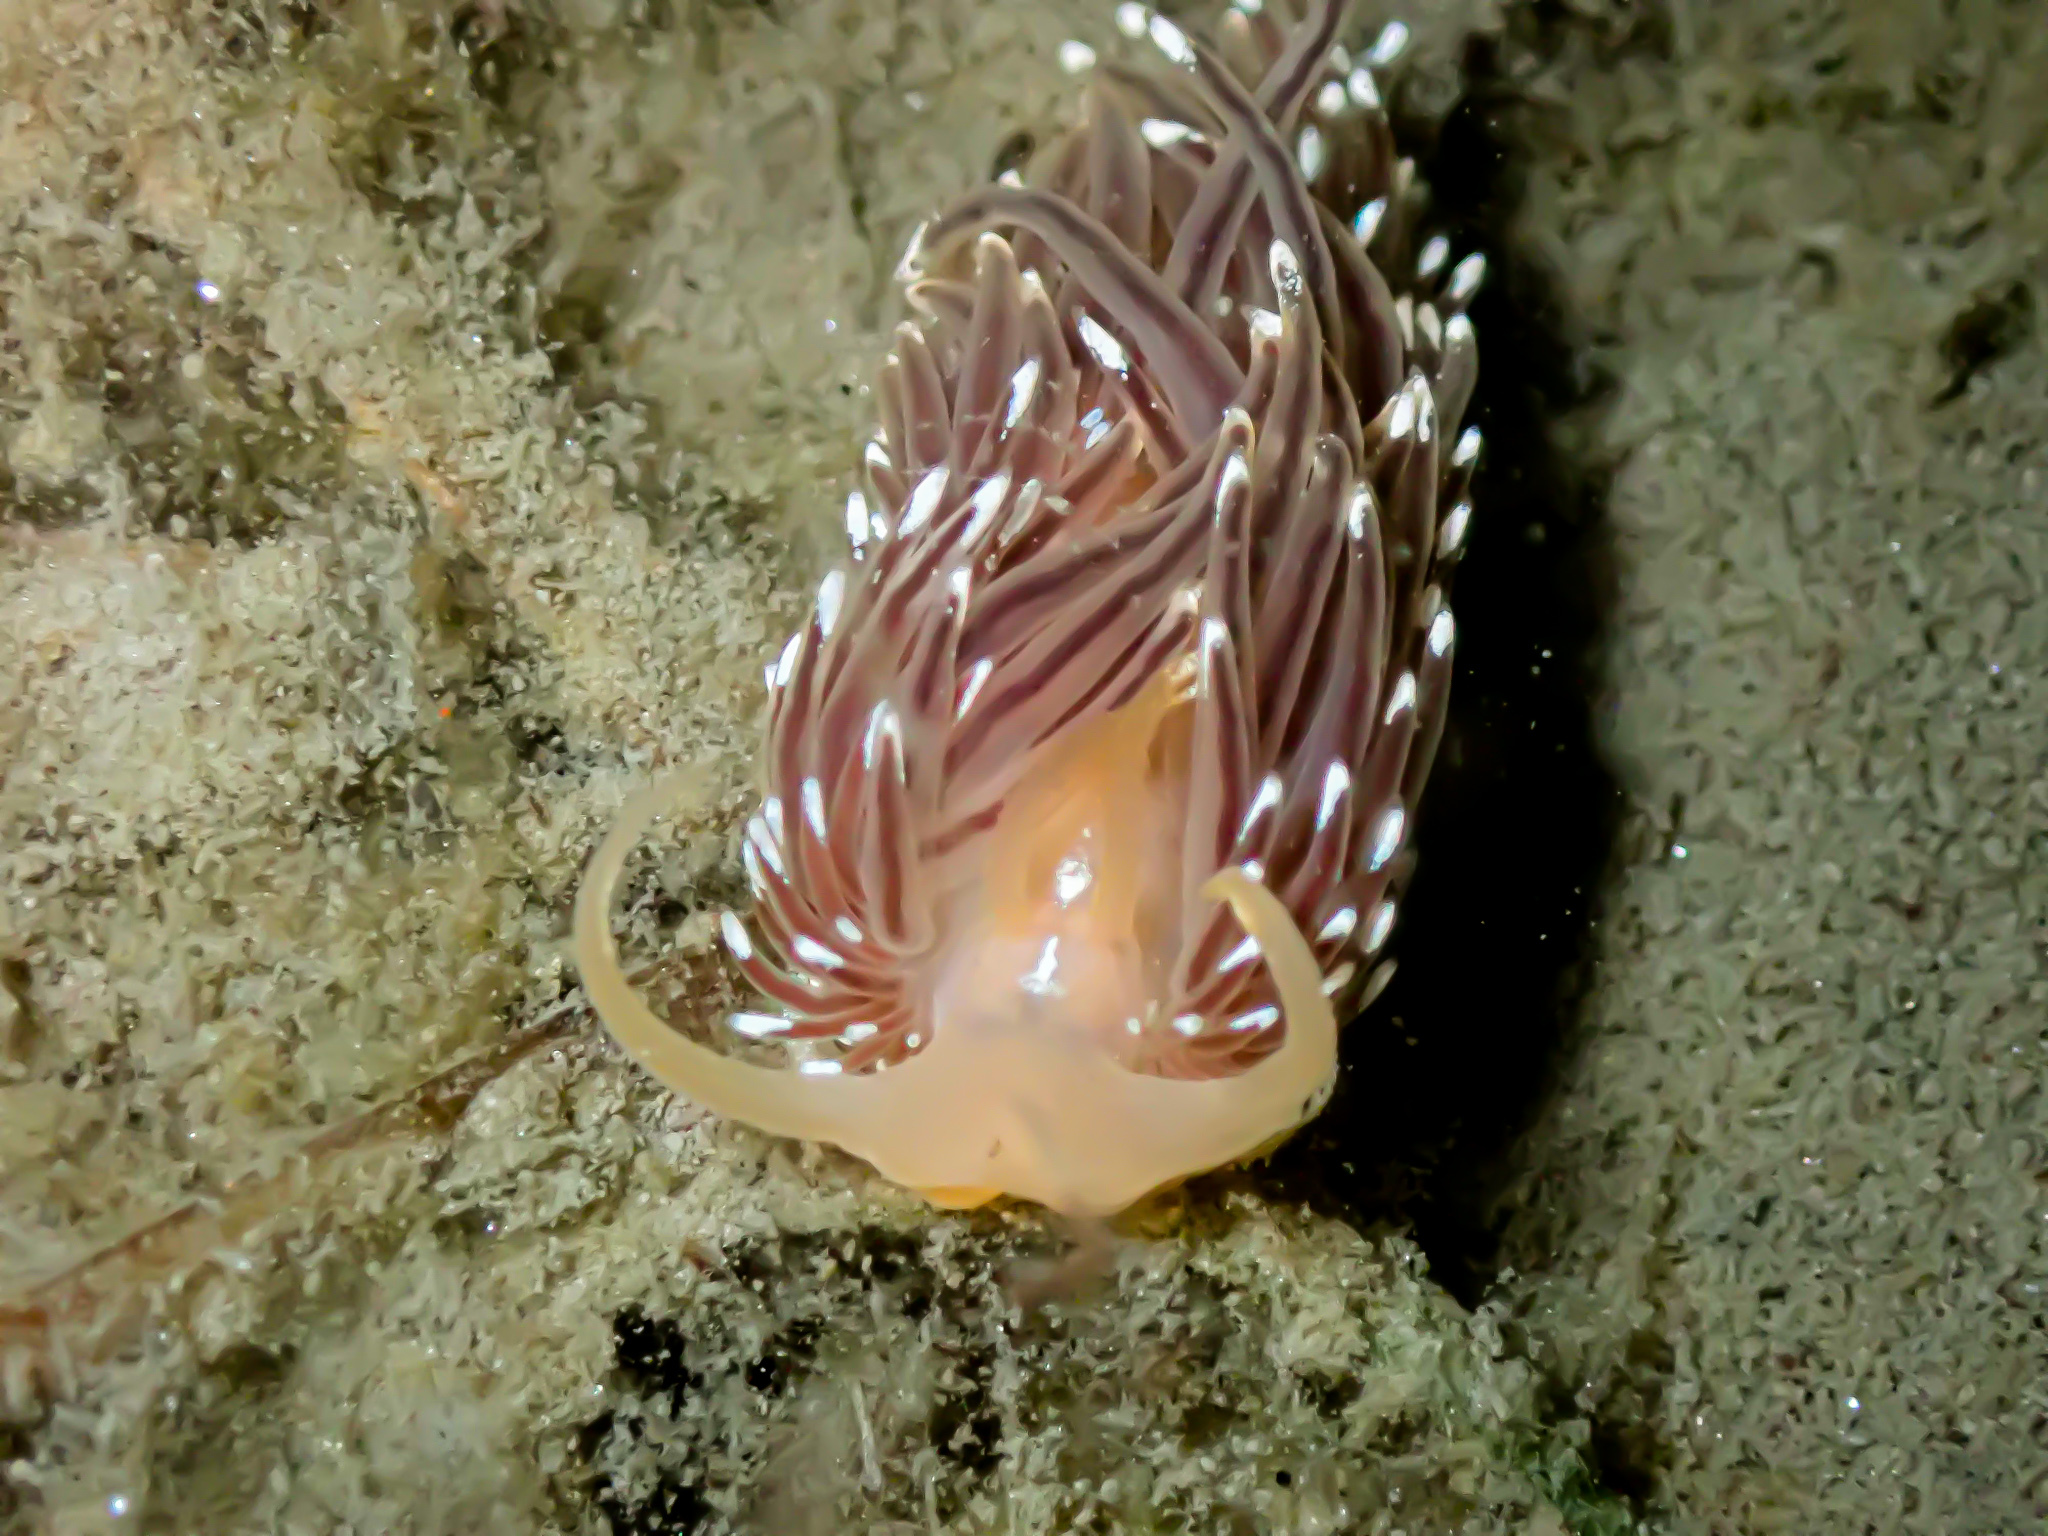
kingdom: Animalia
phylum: Mollusca
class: Gastropoda
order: Nudibranchia
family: Facelinidae
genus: Facelina
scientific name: Facelina bostoniensis
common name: Boston facelina
